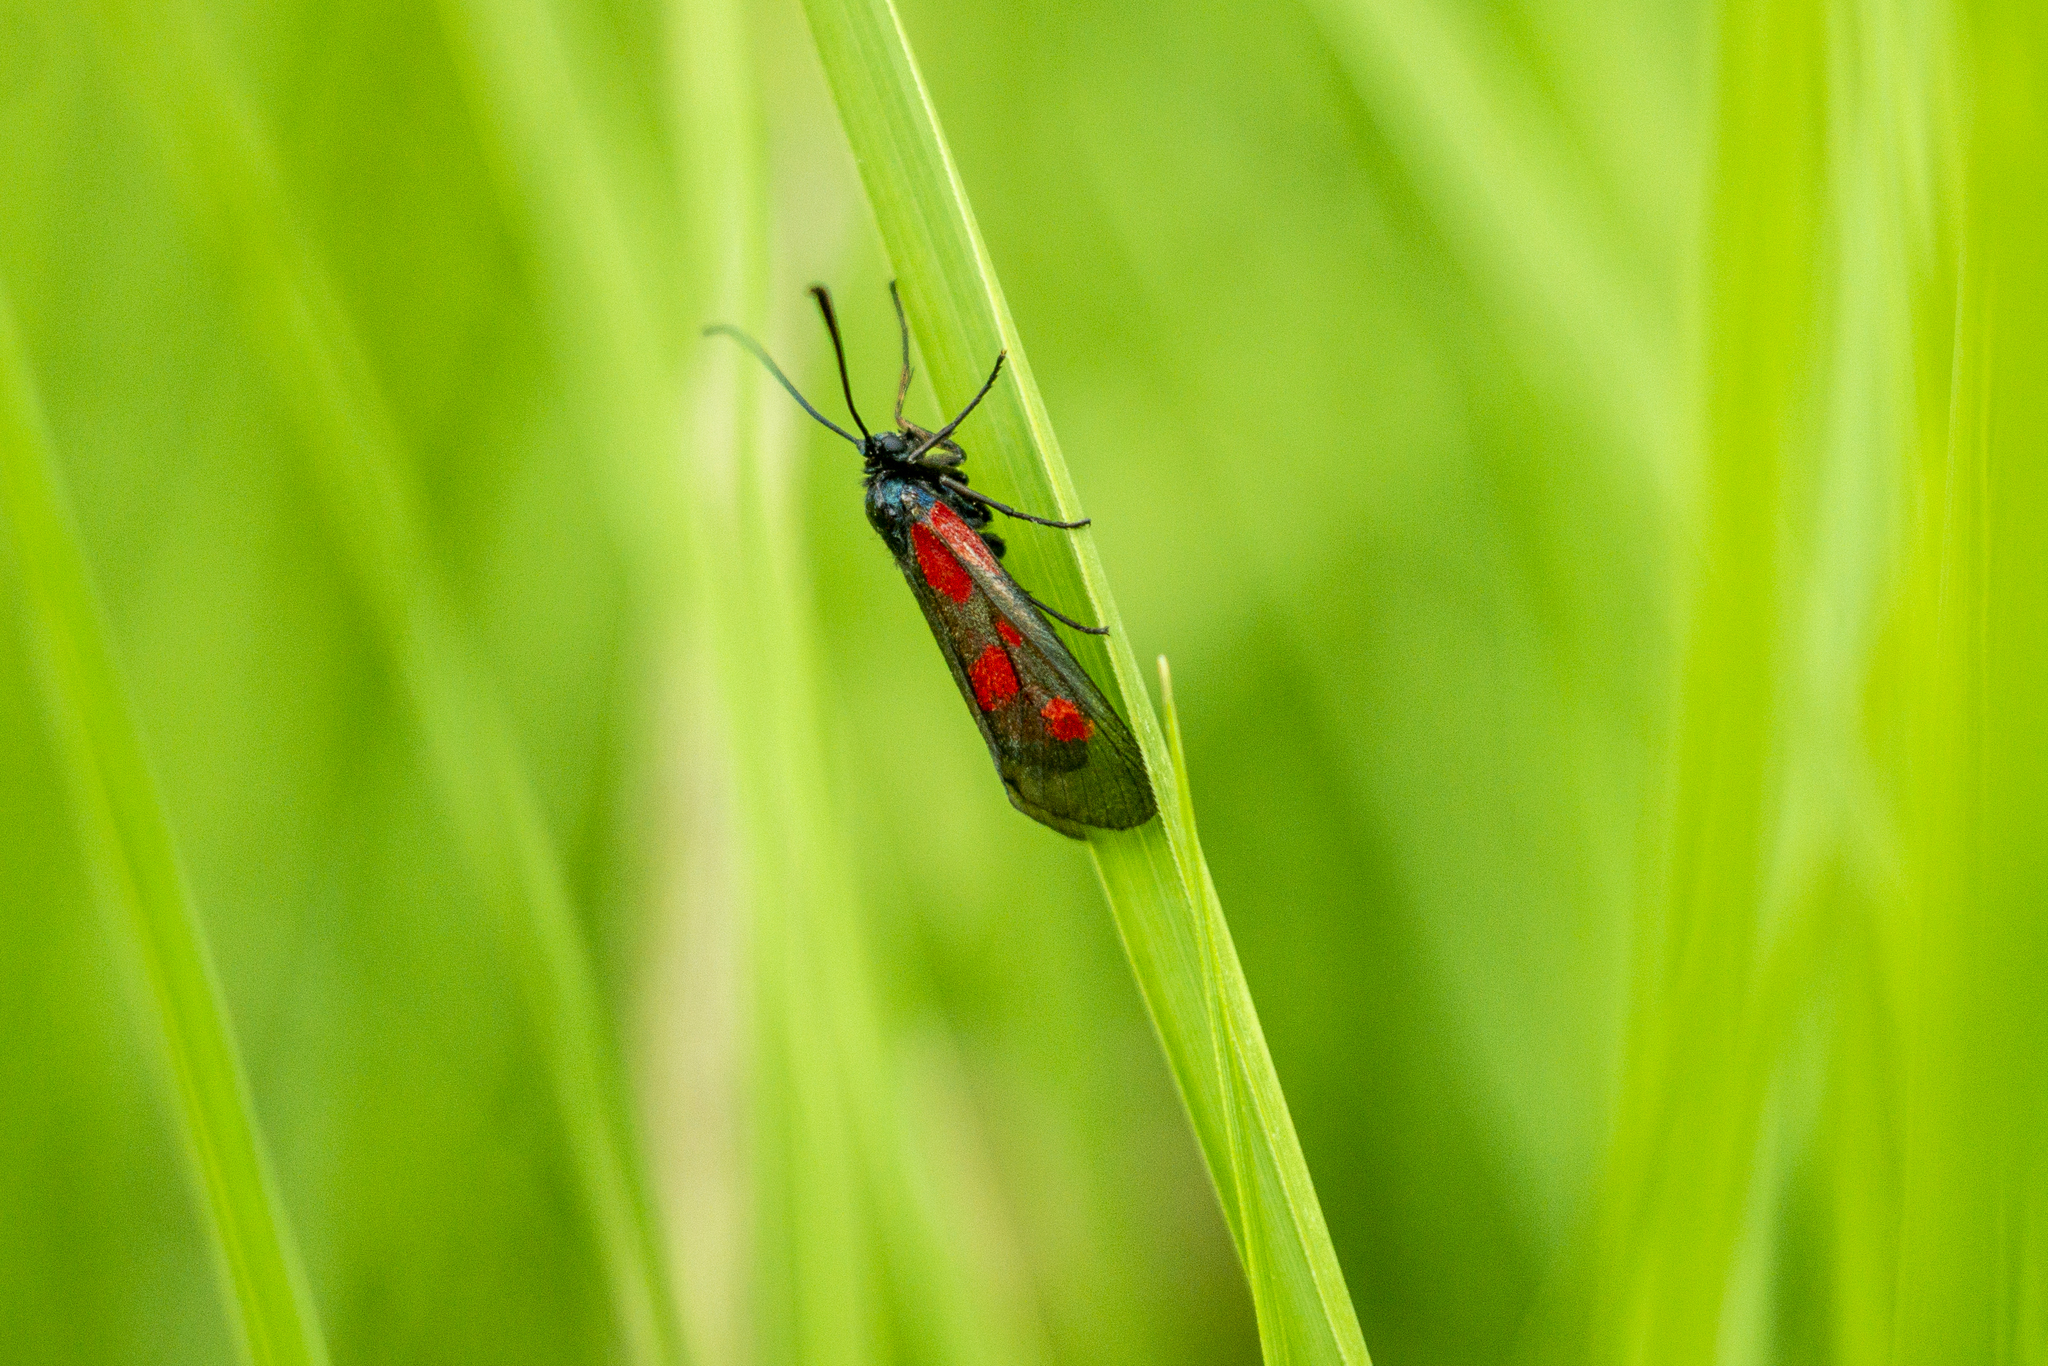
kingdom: Animalia
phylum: Arthropoda
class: Insecta
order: Lepidoptera
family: Zygaenidae
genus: Zygaena
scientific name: Zygaena viciae
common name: New forest burnet
